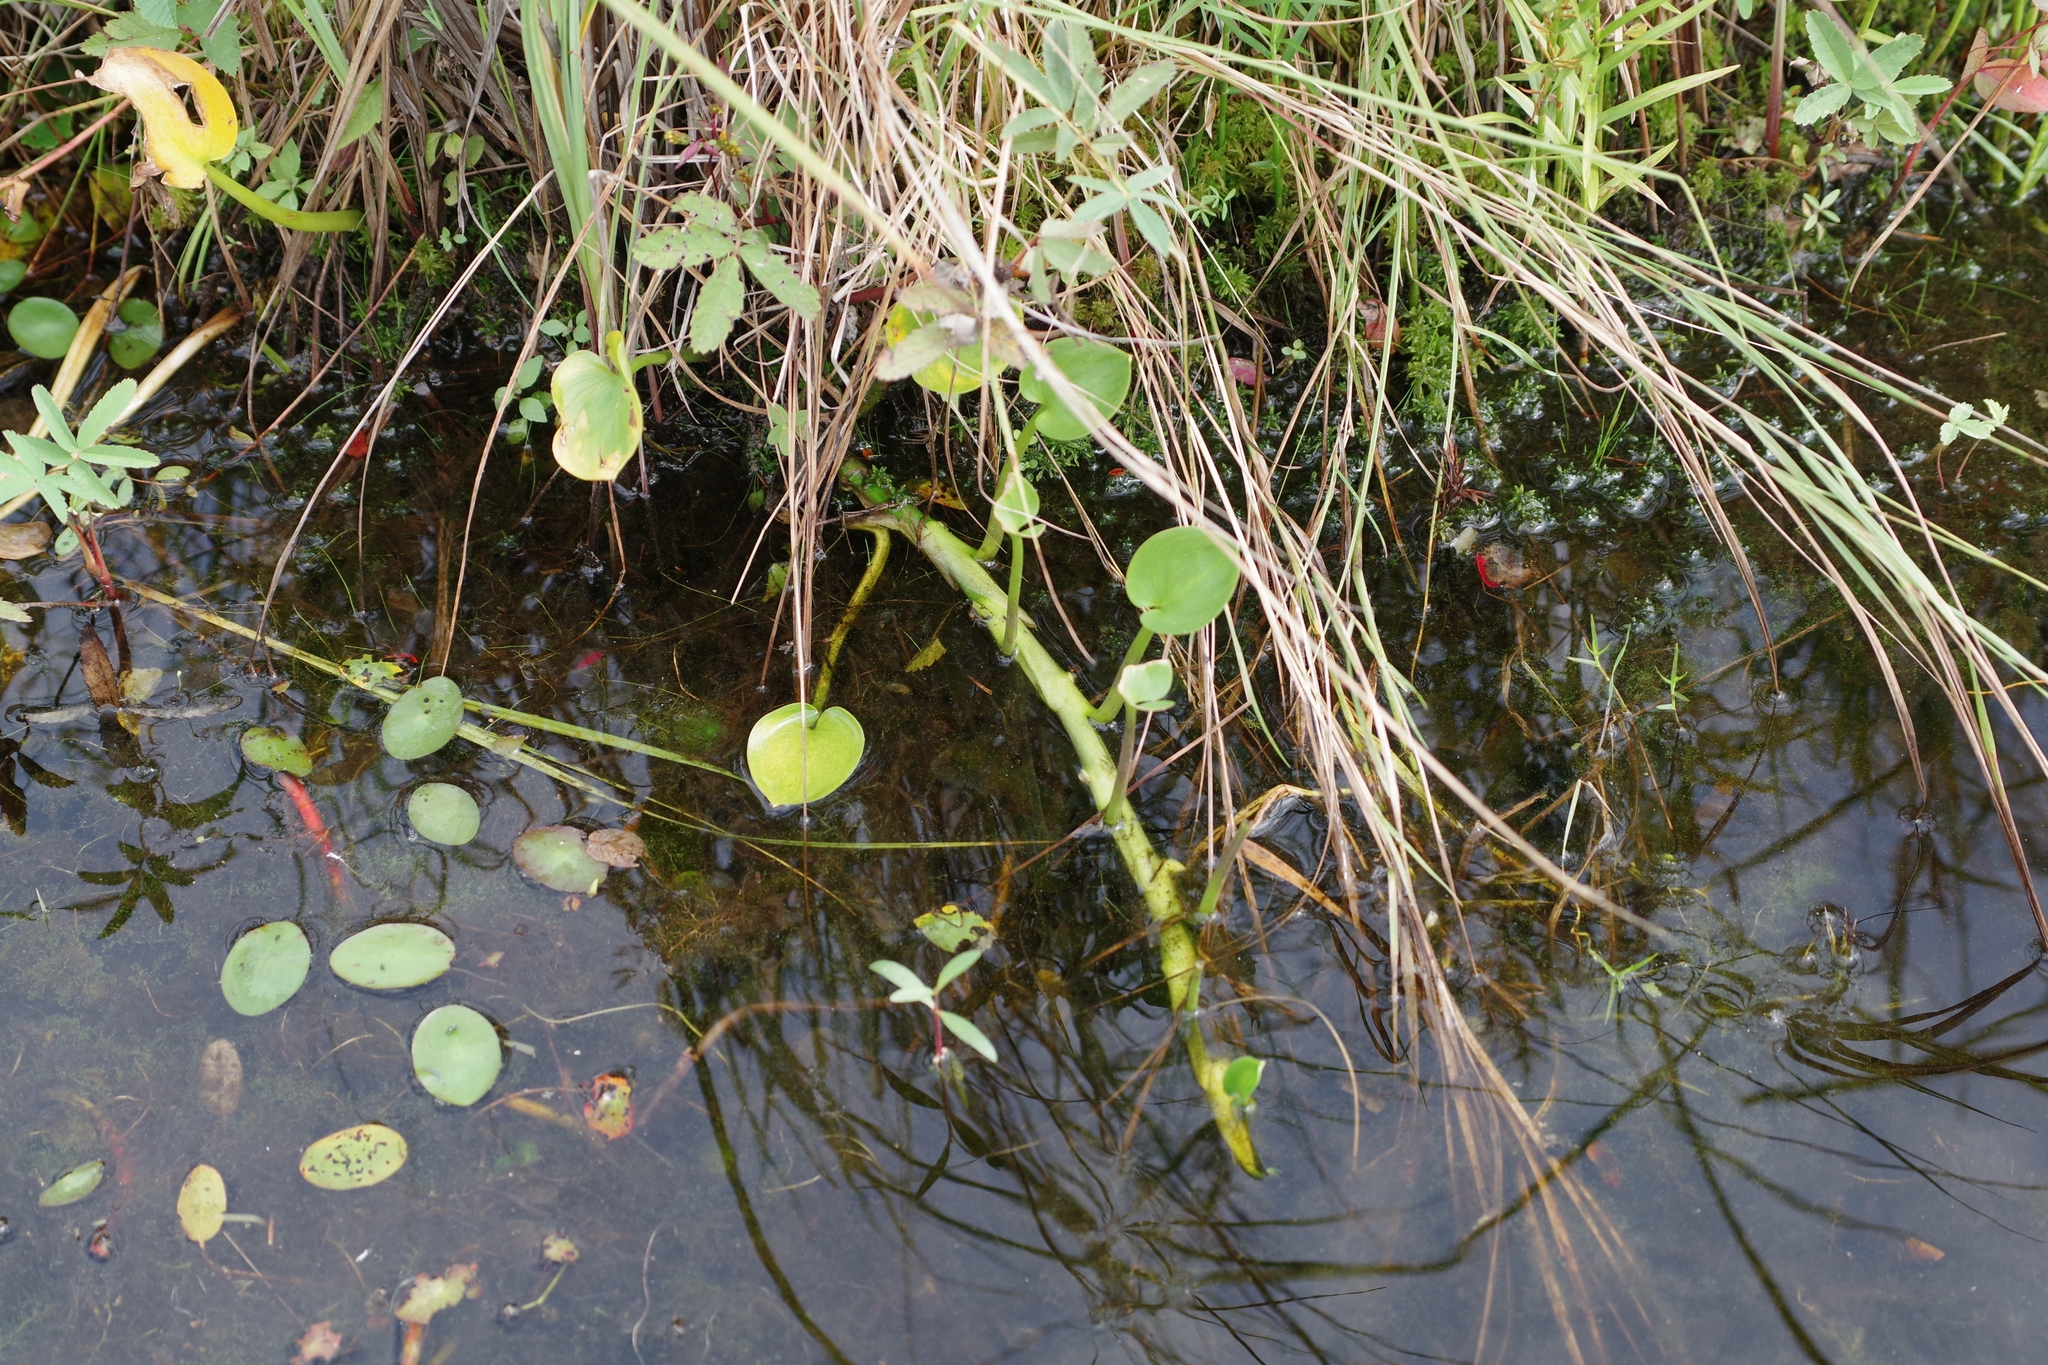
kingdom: Plantae
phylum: Tracheophyta
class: Liliopsida
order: Alismatales
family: Araceae
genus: Calla
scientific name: Calla palustris
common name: Bog arum
